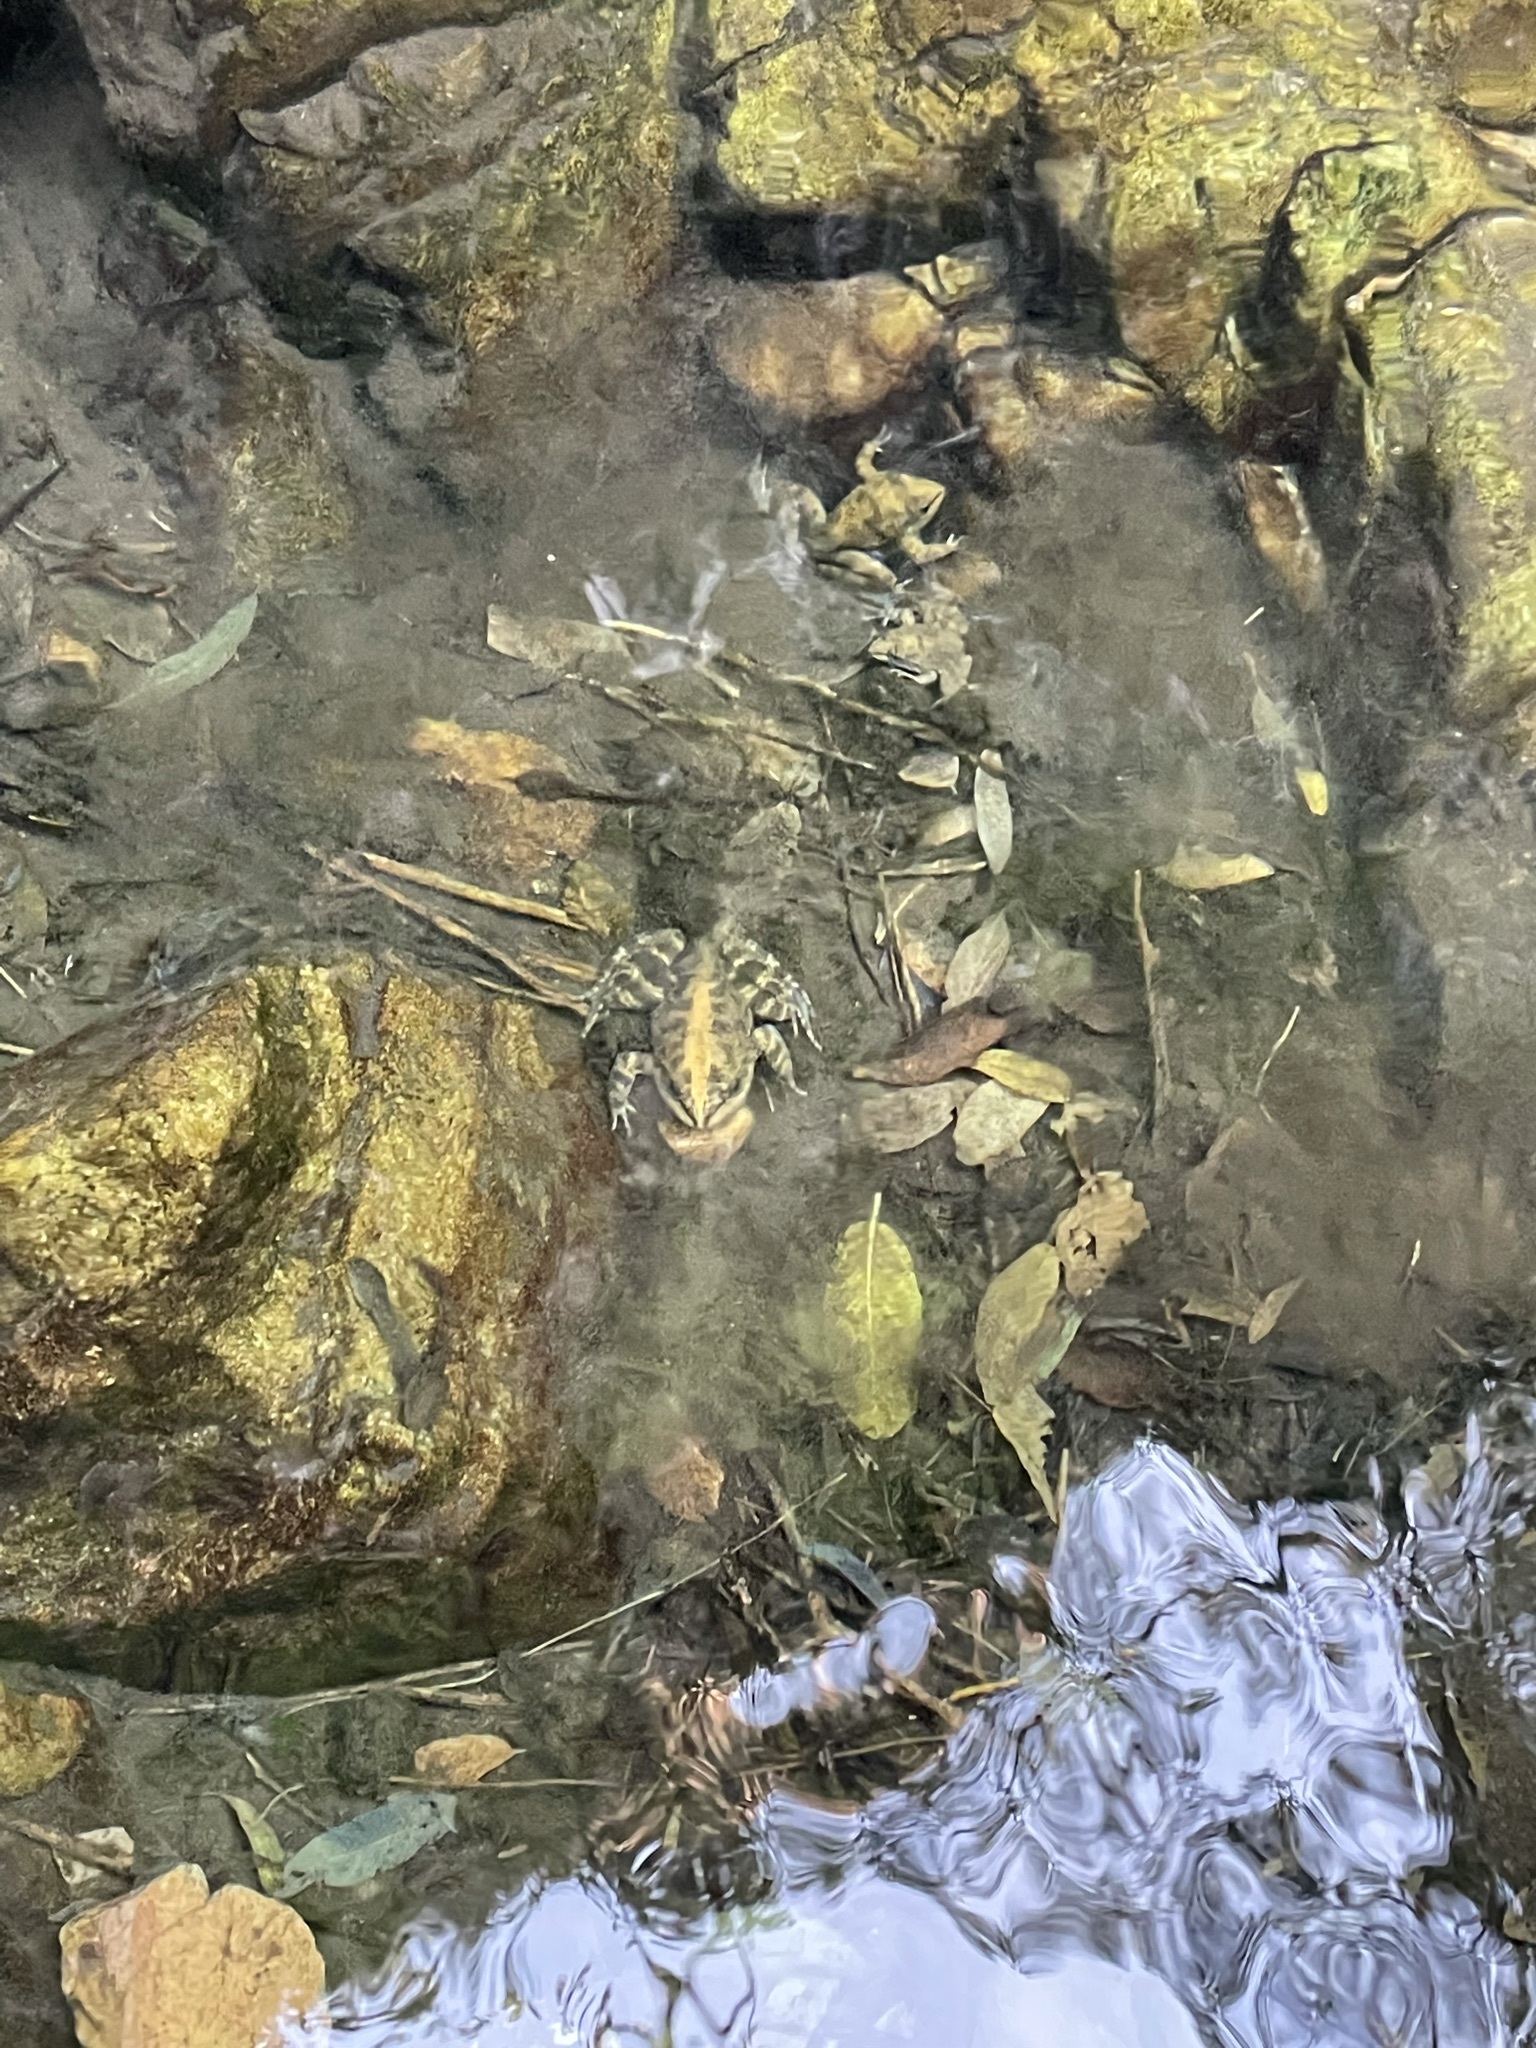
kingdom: Animalia
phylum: Chordata
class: Amphibia
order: Anura
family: Pyxicephalidae
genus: Amietia
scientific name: Amietia fuscigula
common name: Cape rana
